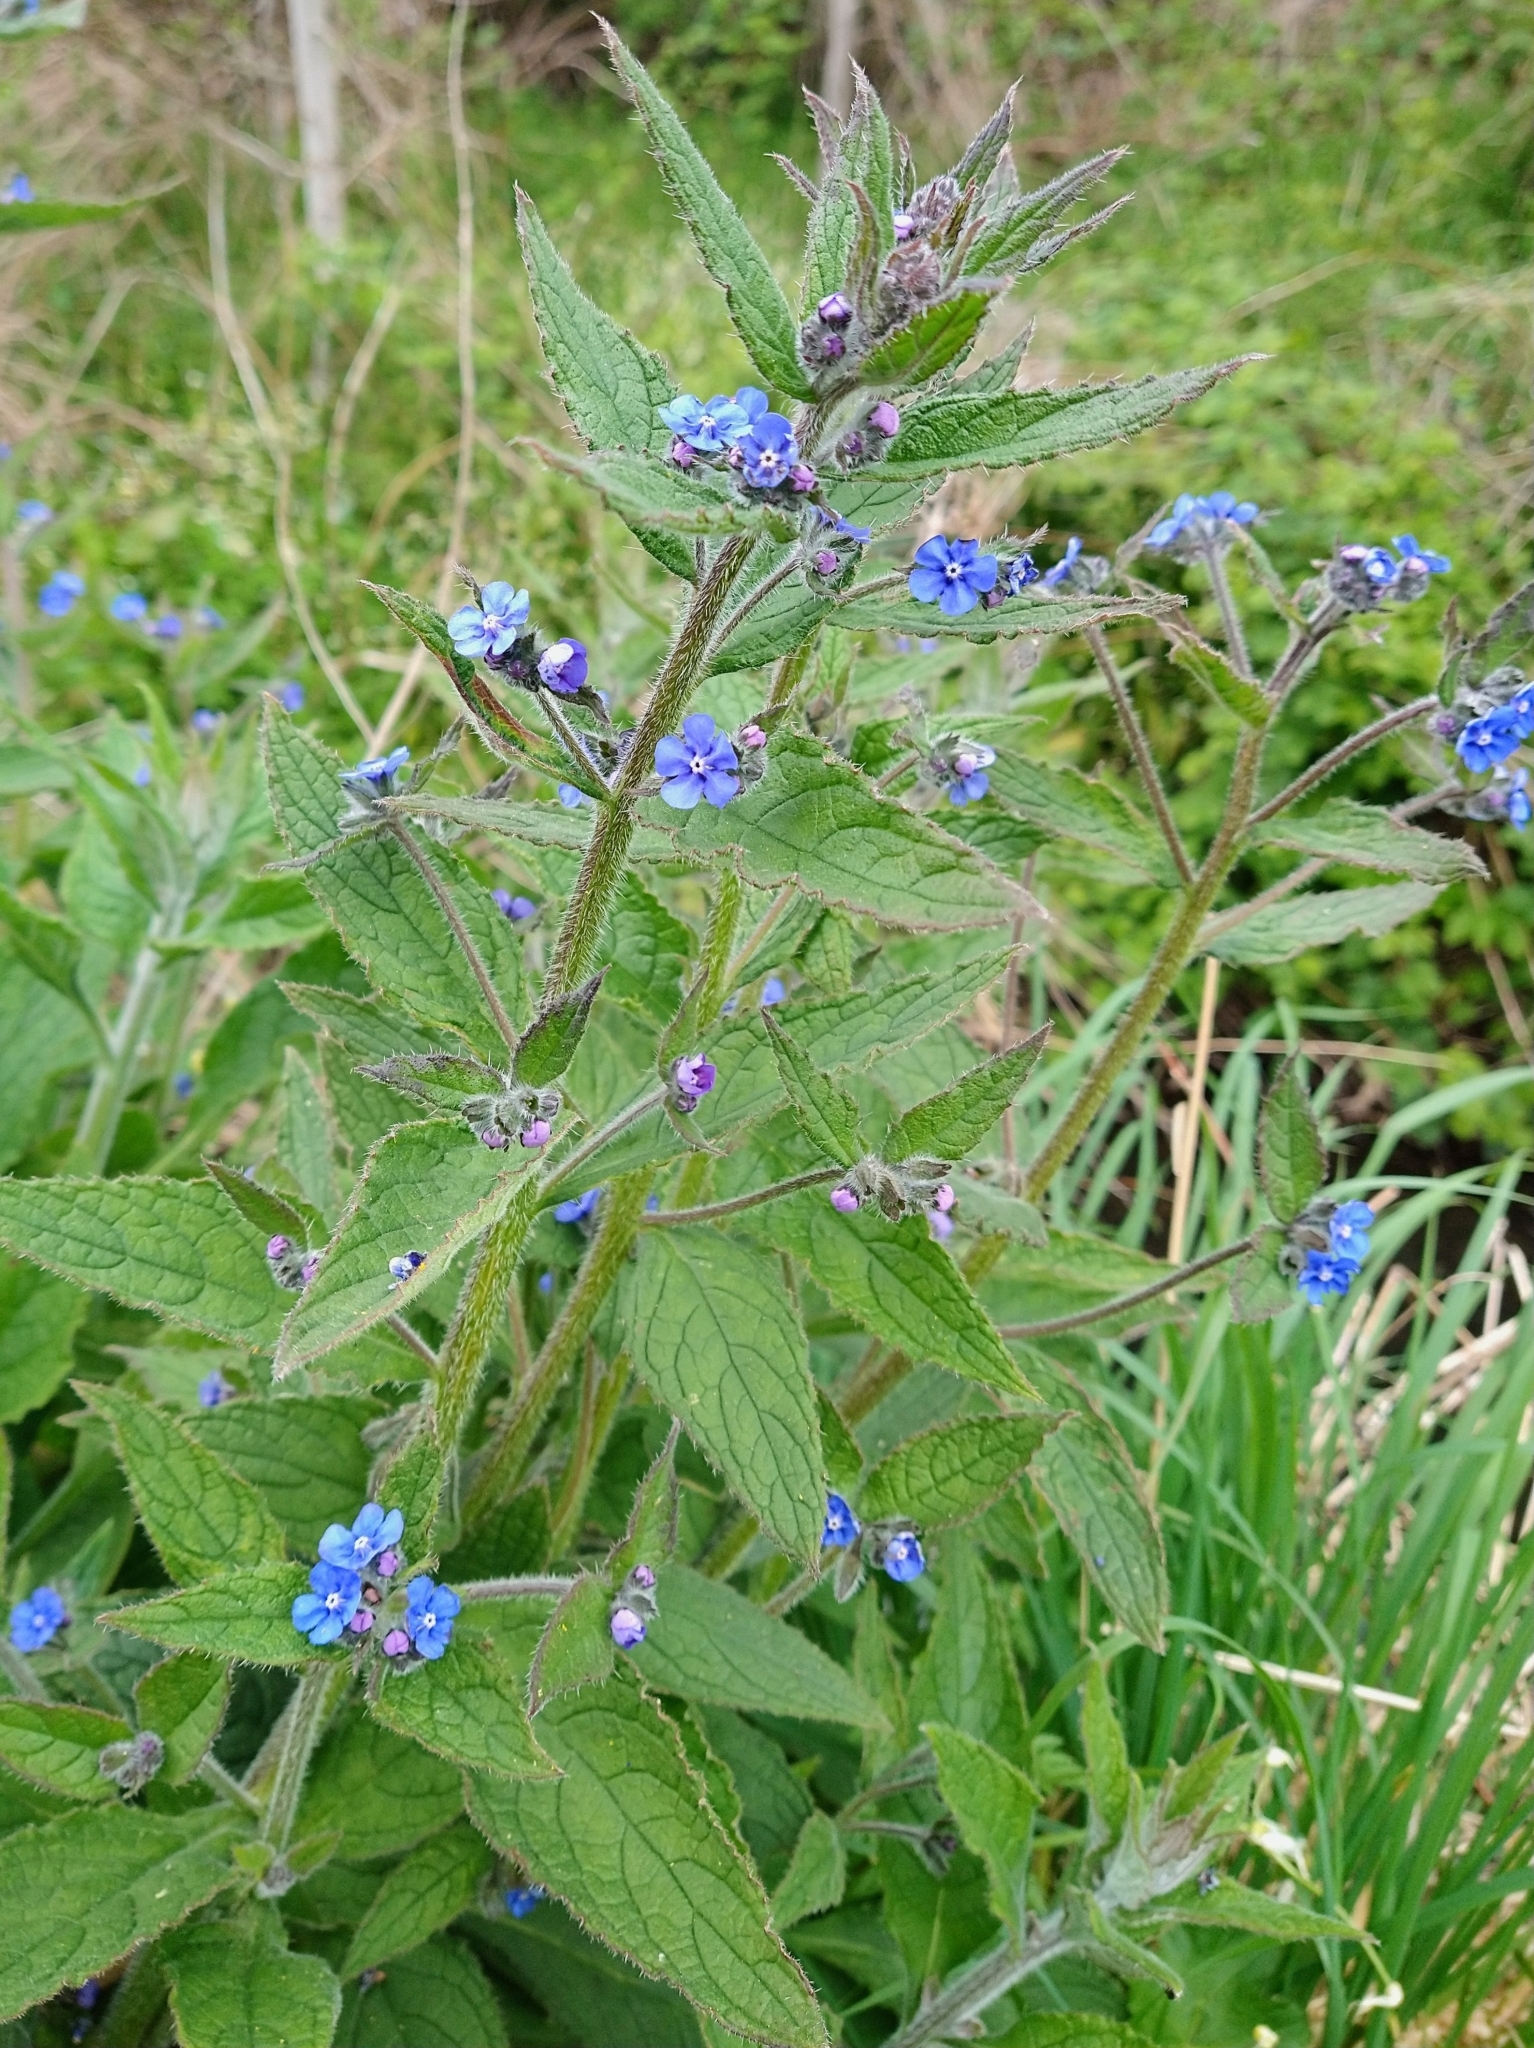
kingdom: Plantae
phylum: Tracheophyta
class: Magnoliopsida
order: Boraginales
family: Boraginaceae
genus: Pentaglottis
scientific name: Pentaglottis sempervirens
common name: Green alkanet
